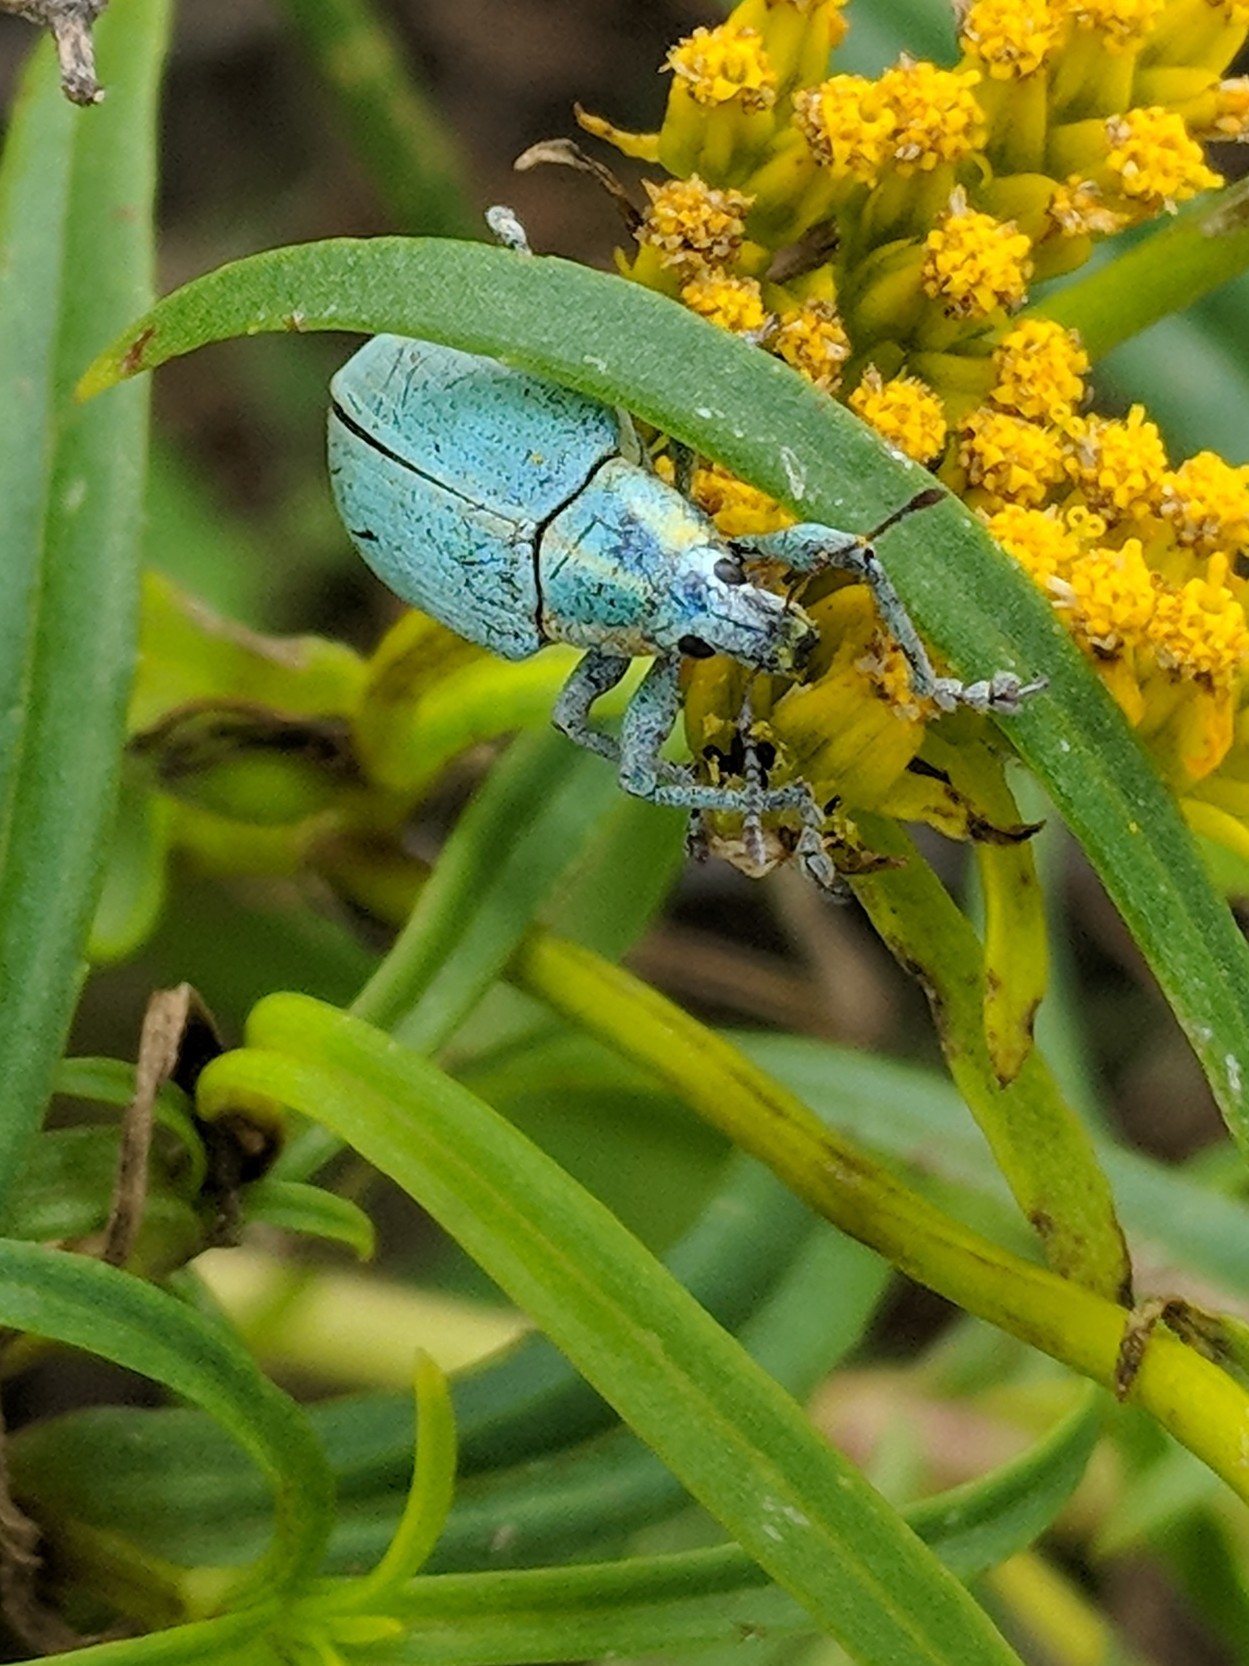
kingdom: Animalia
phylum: Arthropoda
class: Insecta
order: Coleoptera
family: Curculionidae
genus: Pachnaeus
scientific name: Pachnaeus litus
